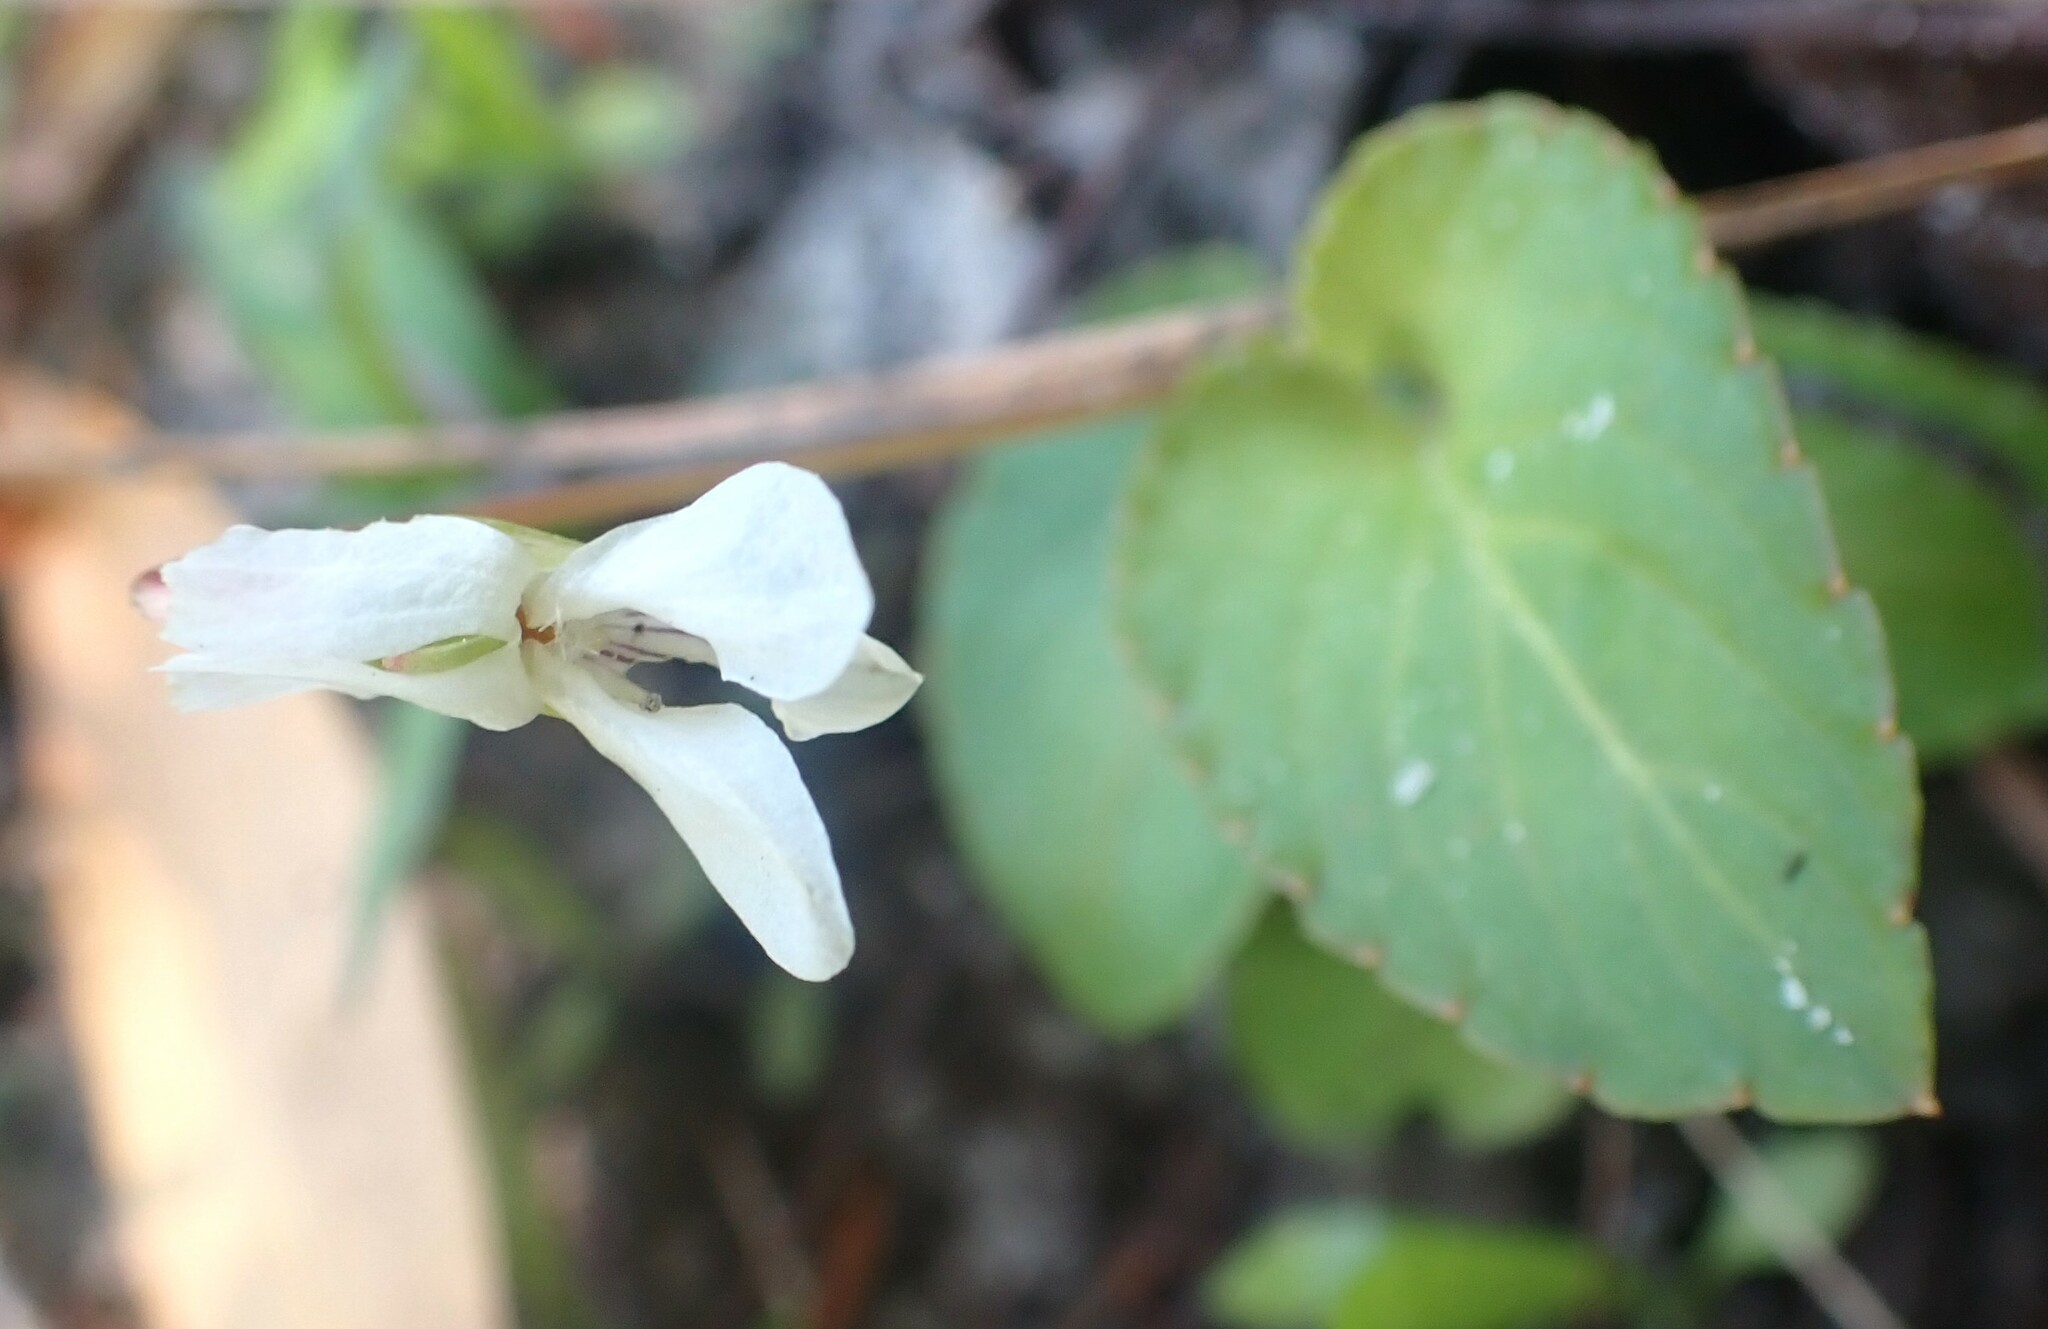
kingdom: Plantae
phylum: Tracheophyta
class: Magnoliopsida
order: Malpighiales
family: Violaceae
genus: Viola
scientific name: Viola primulifolia
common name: Primrose-leaf violet
